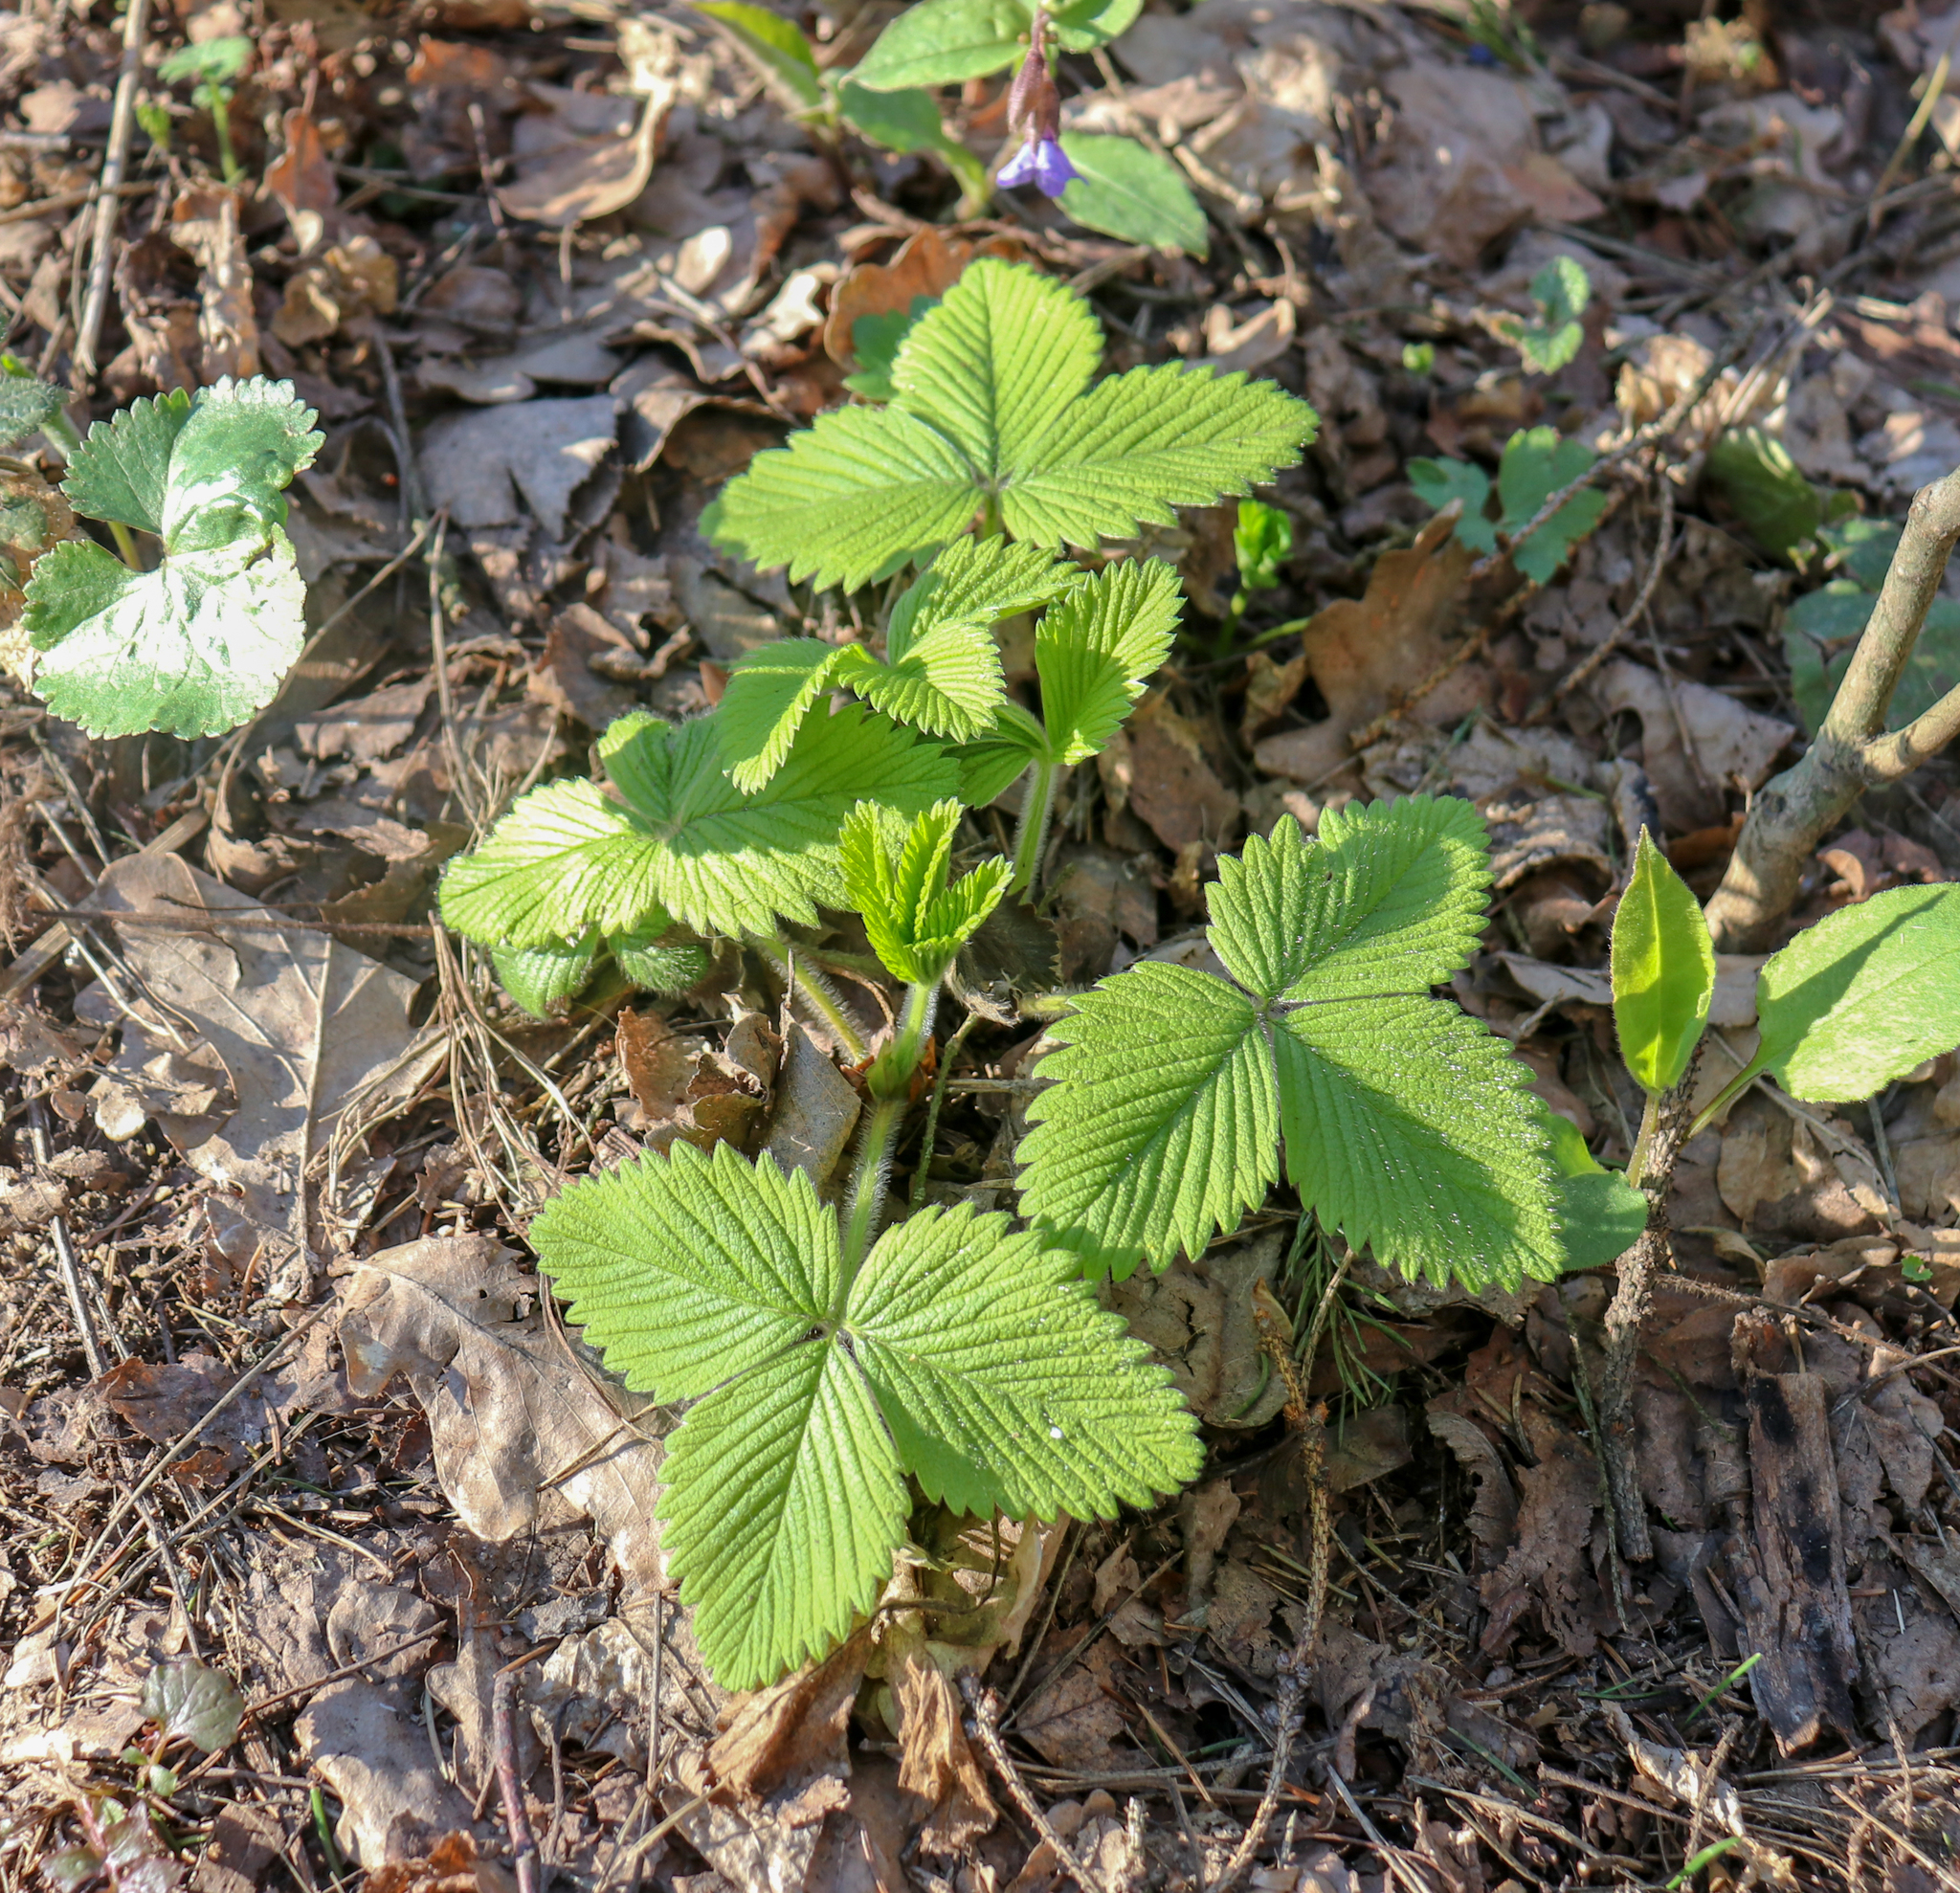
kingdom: Plantae
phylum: Tracheophyta
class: Magnoliopsida
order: Rosales
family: Rosaceae
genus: Fragaria
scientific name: Fragaria moschata
